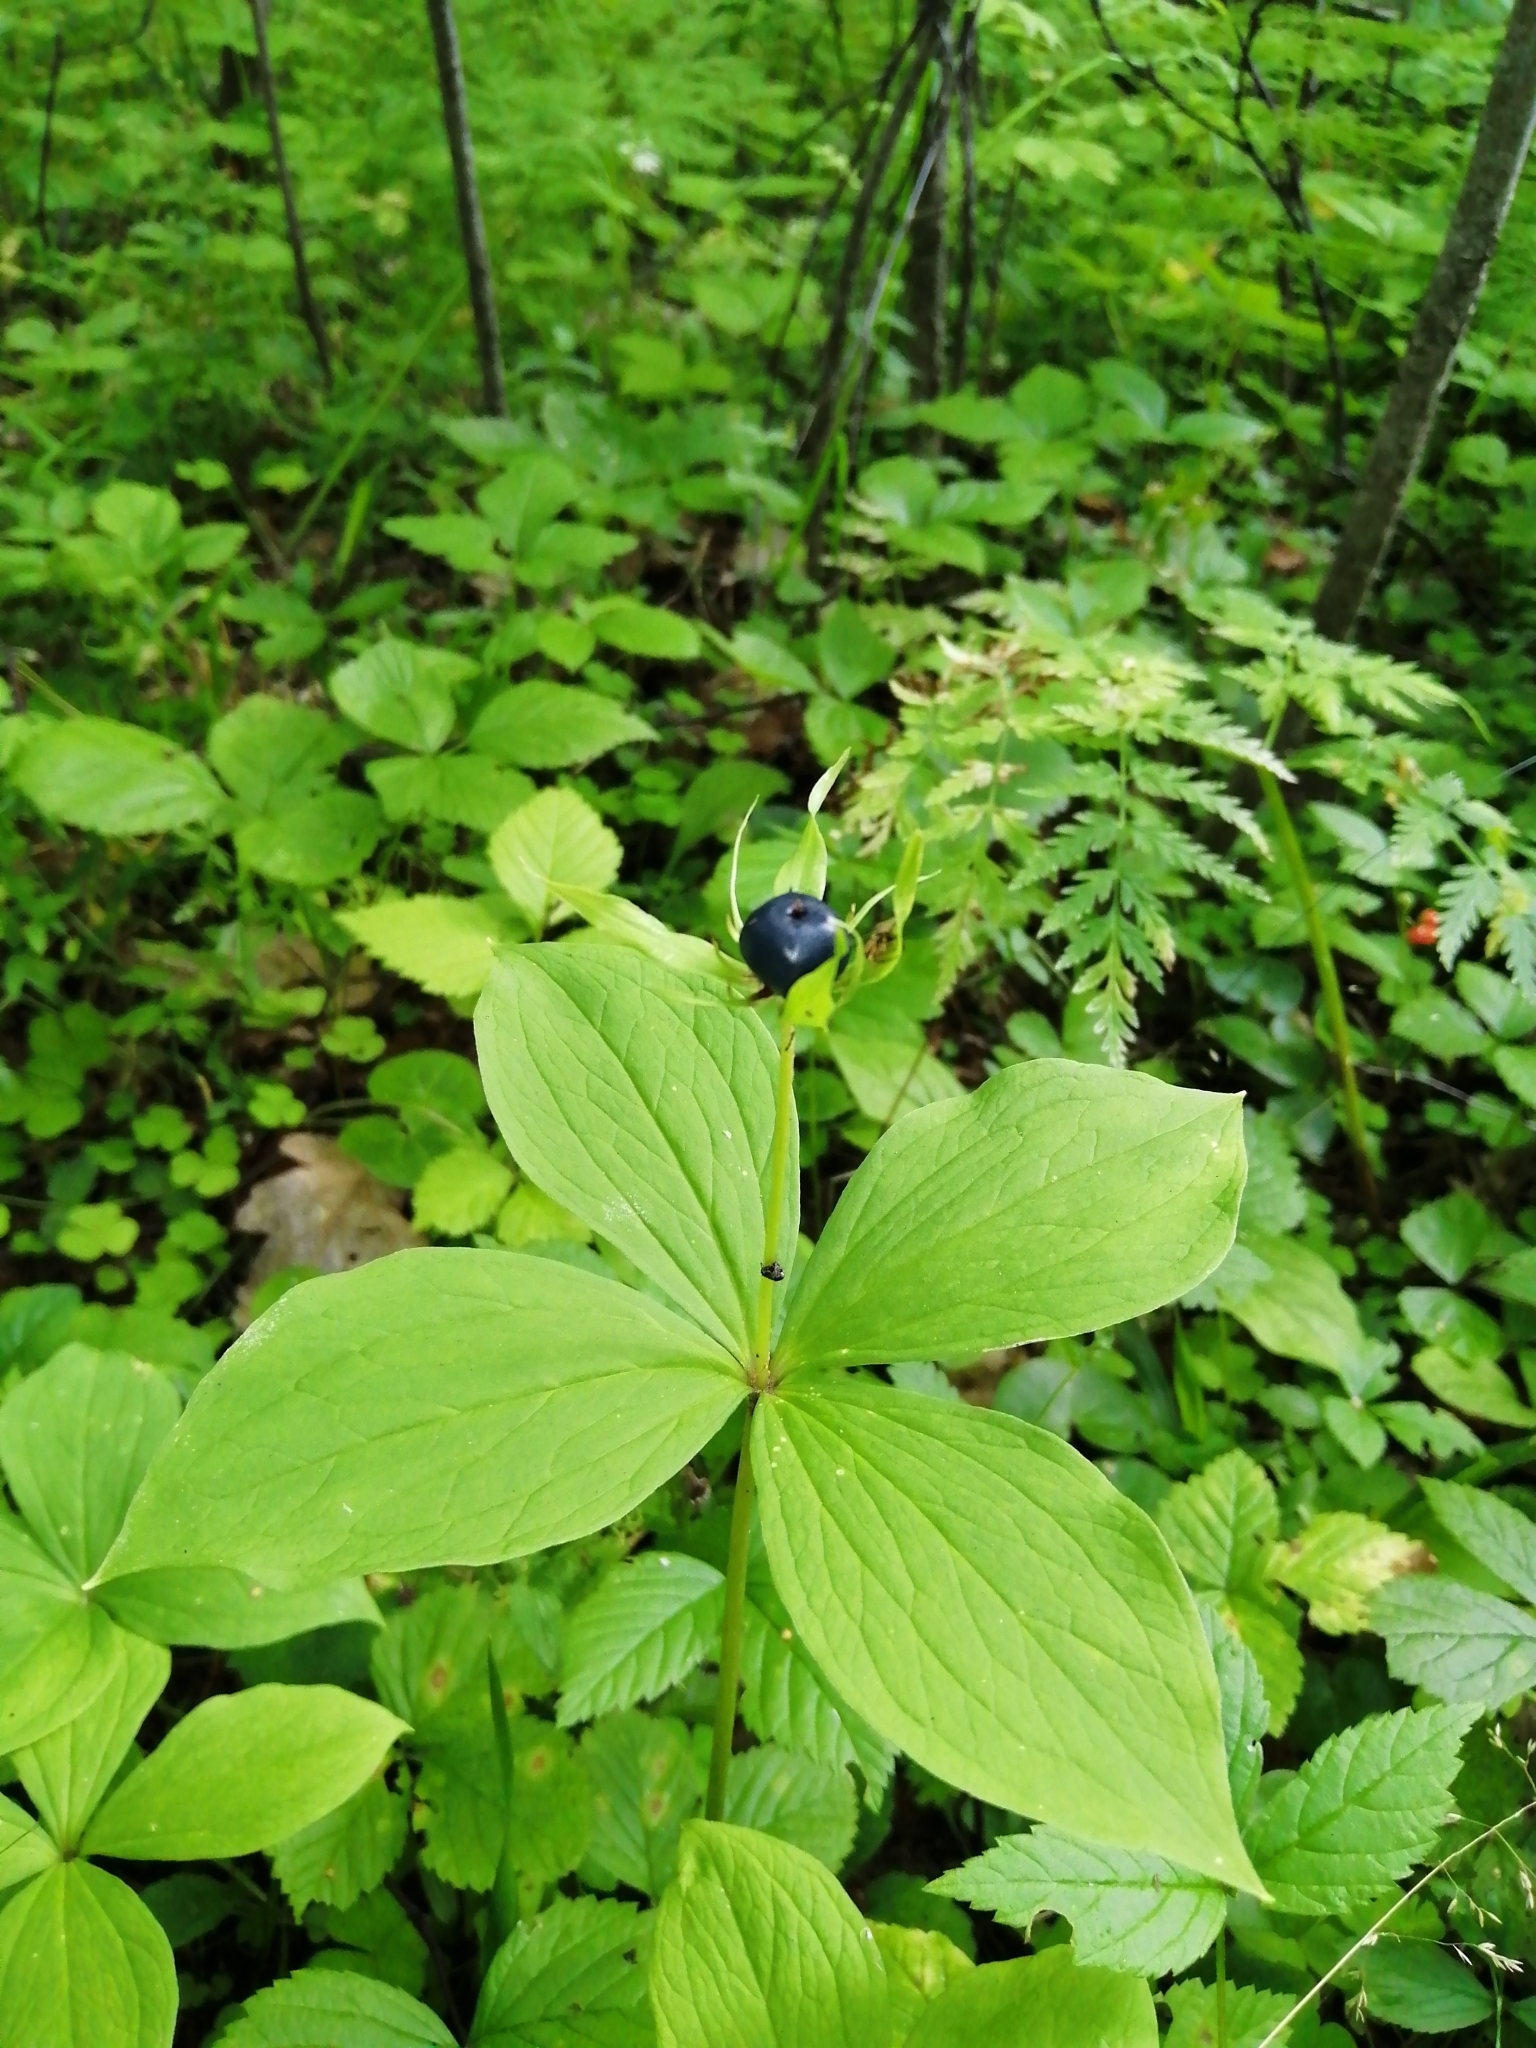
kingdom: Plantae
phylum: Tracheophyta
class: Liliopsida
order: Liliales
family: Melanthiaceae
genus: Paris
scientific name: Paris quadrifolia
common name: Herb-paris
